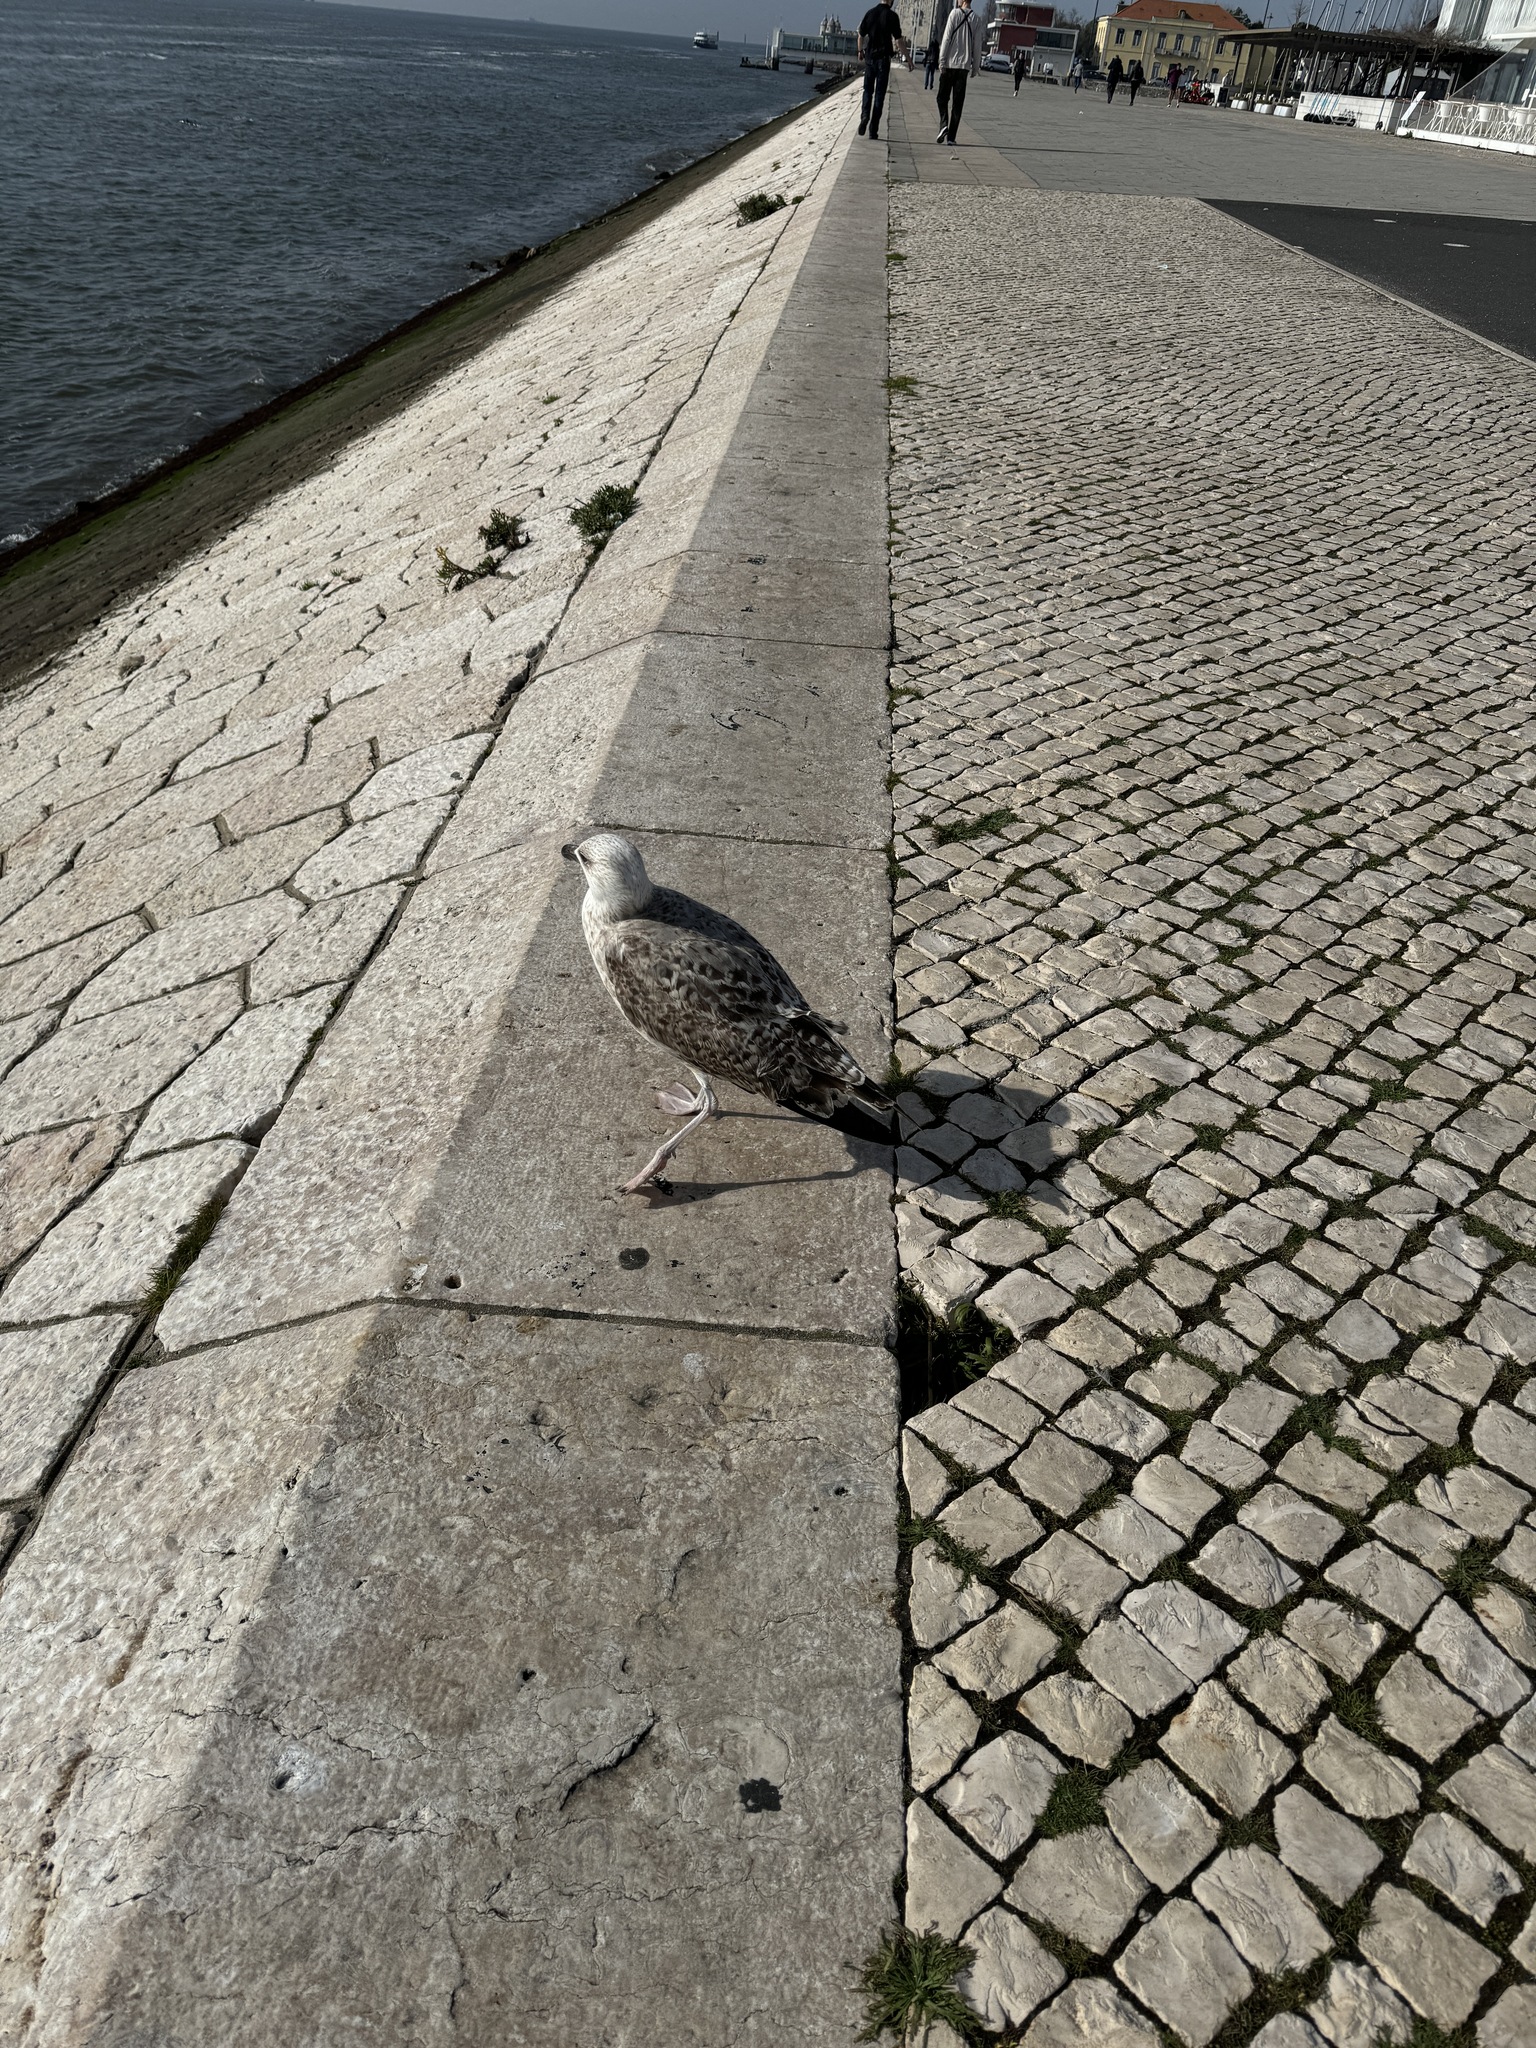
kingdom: Animalia
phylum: Chordata
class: Aves
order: Charadriiformes
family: Laridae
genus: Larus
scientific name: Larus michahellis
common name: Yellow-legged gull
